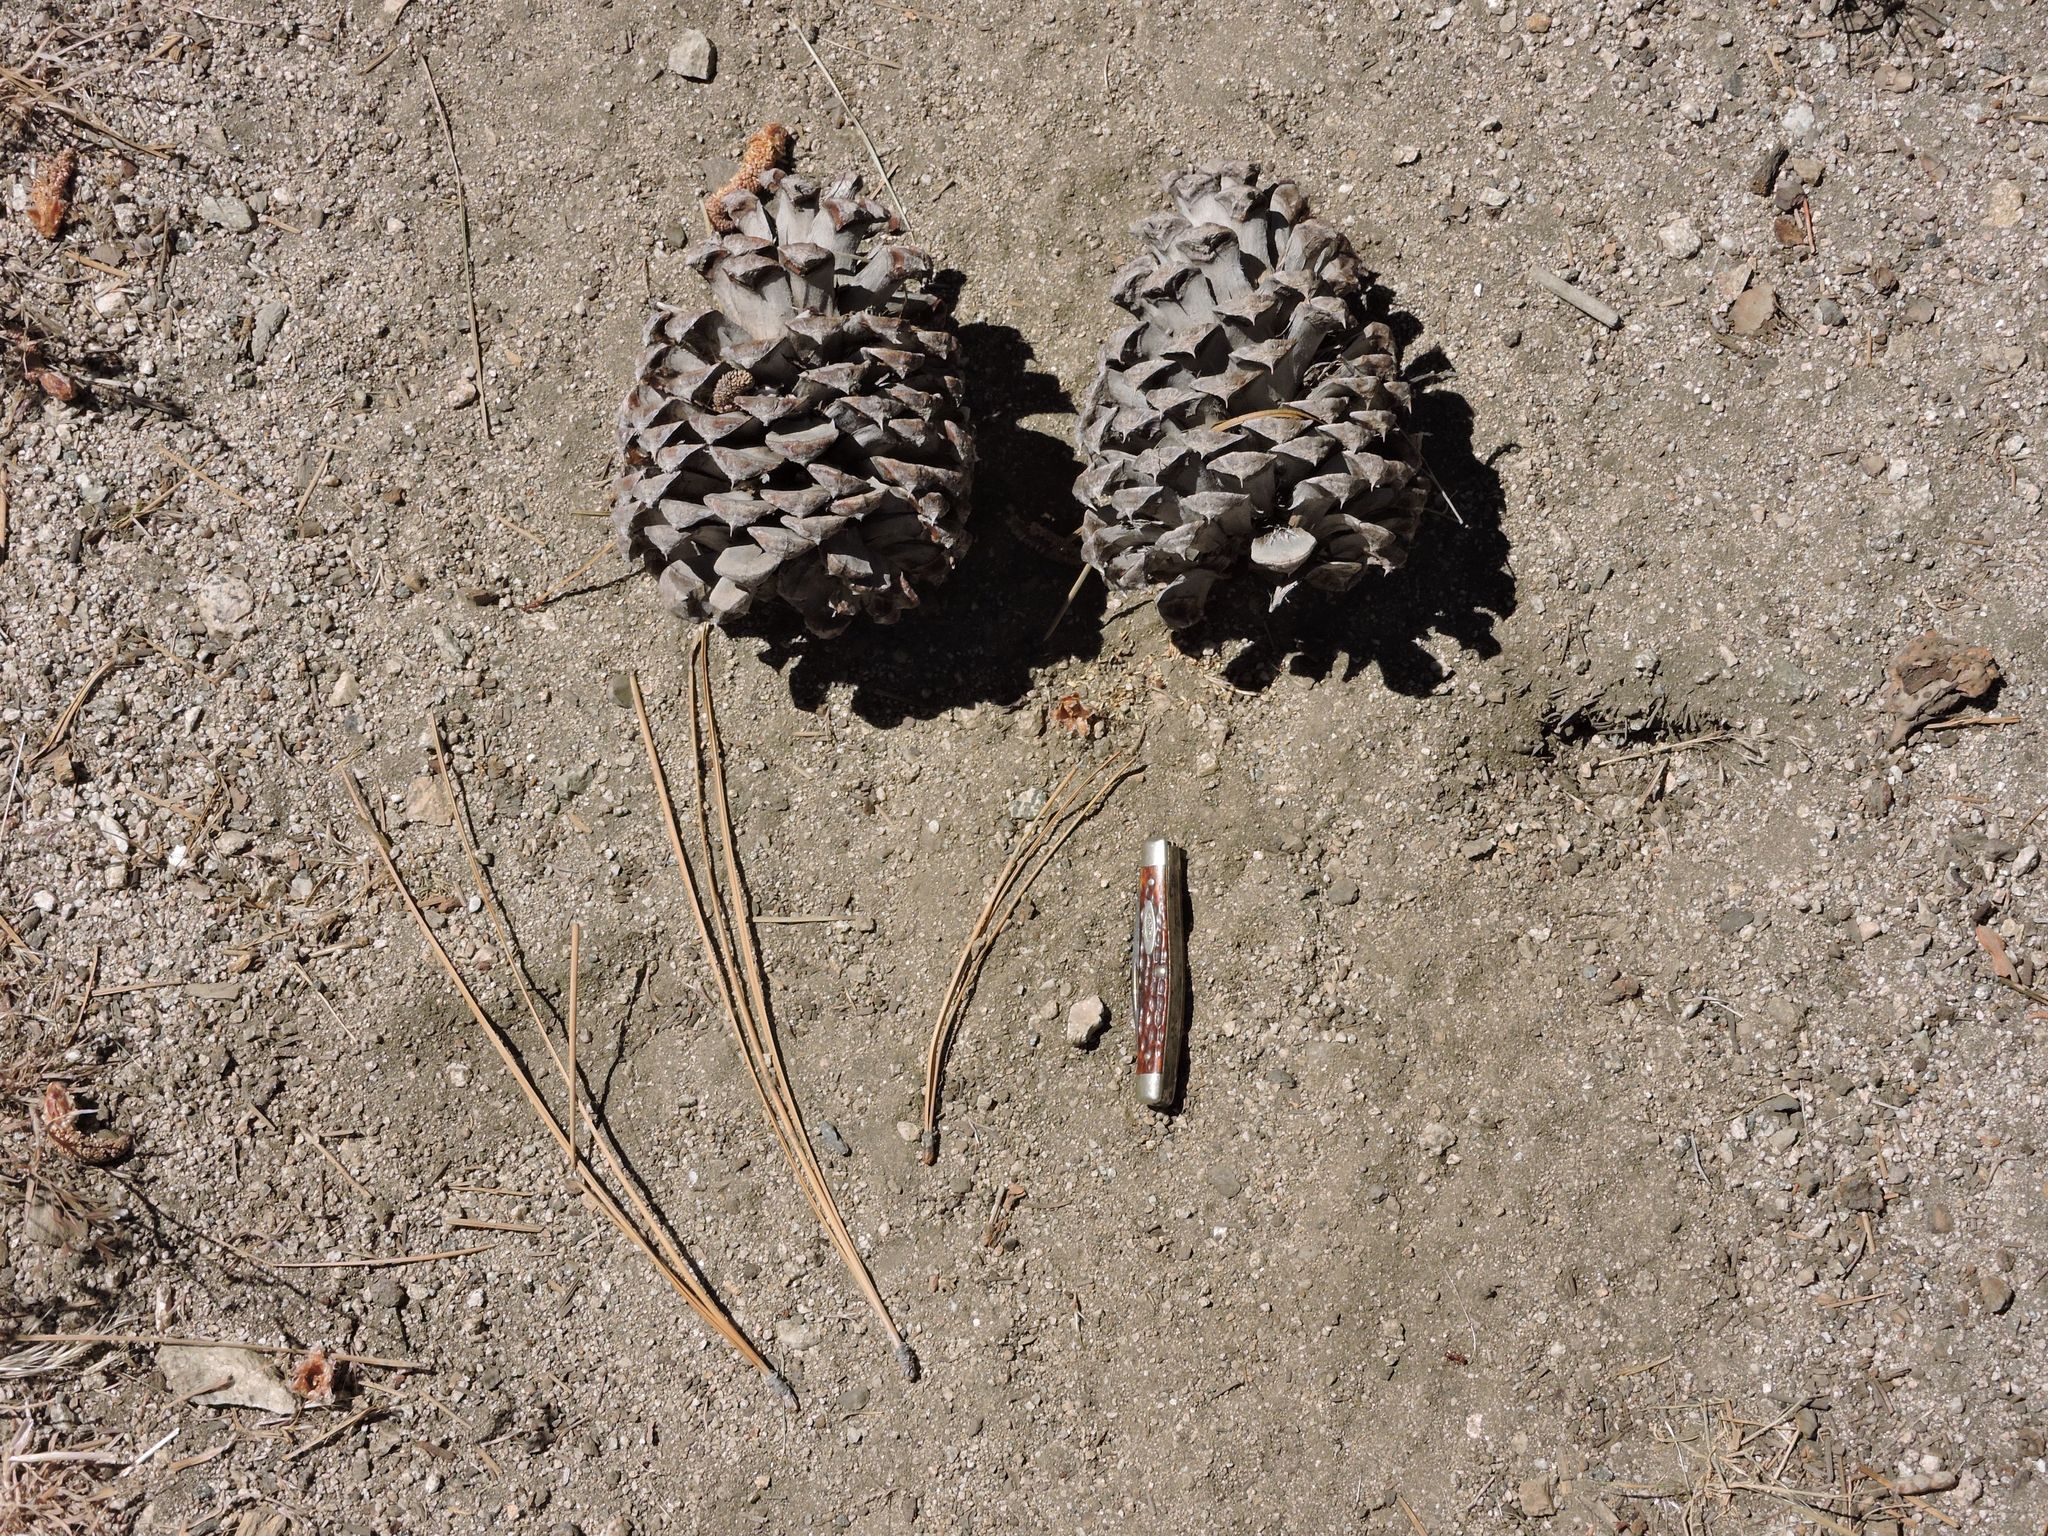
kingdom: Plantae
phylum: Tracheophyta
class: Pinopsida
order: Pinales
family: Pinaceae
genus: Pinus
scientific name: Pinus jeffreyi
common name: Jeffrey pine
